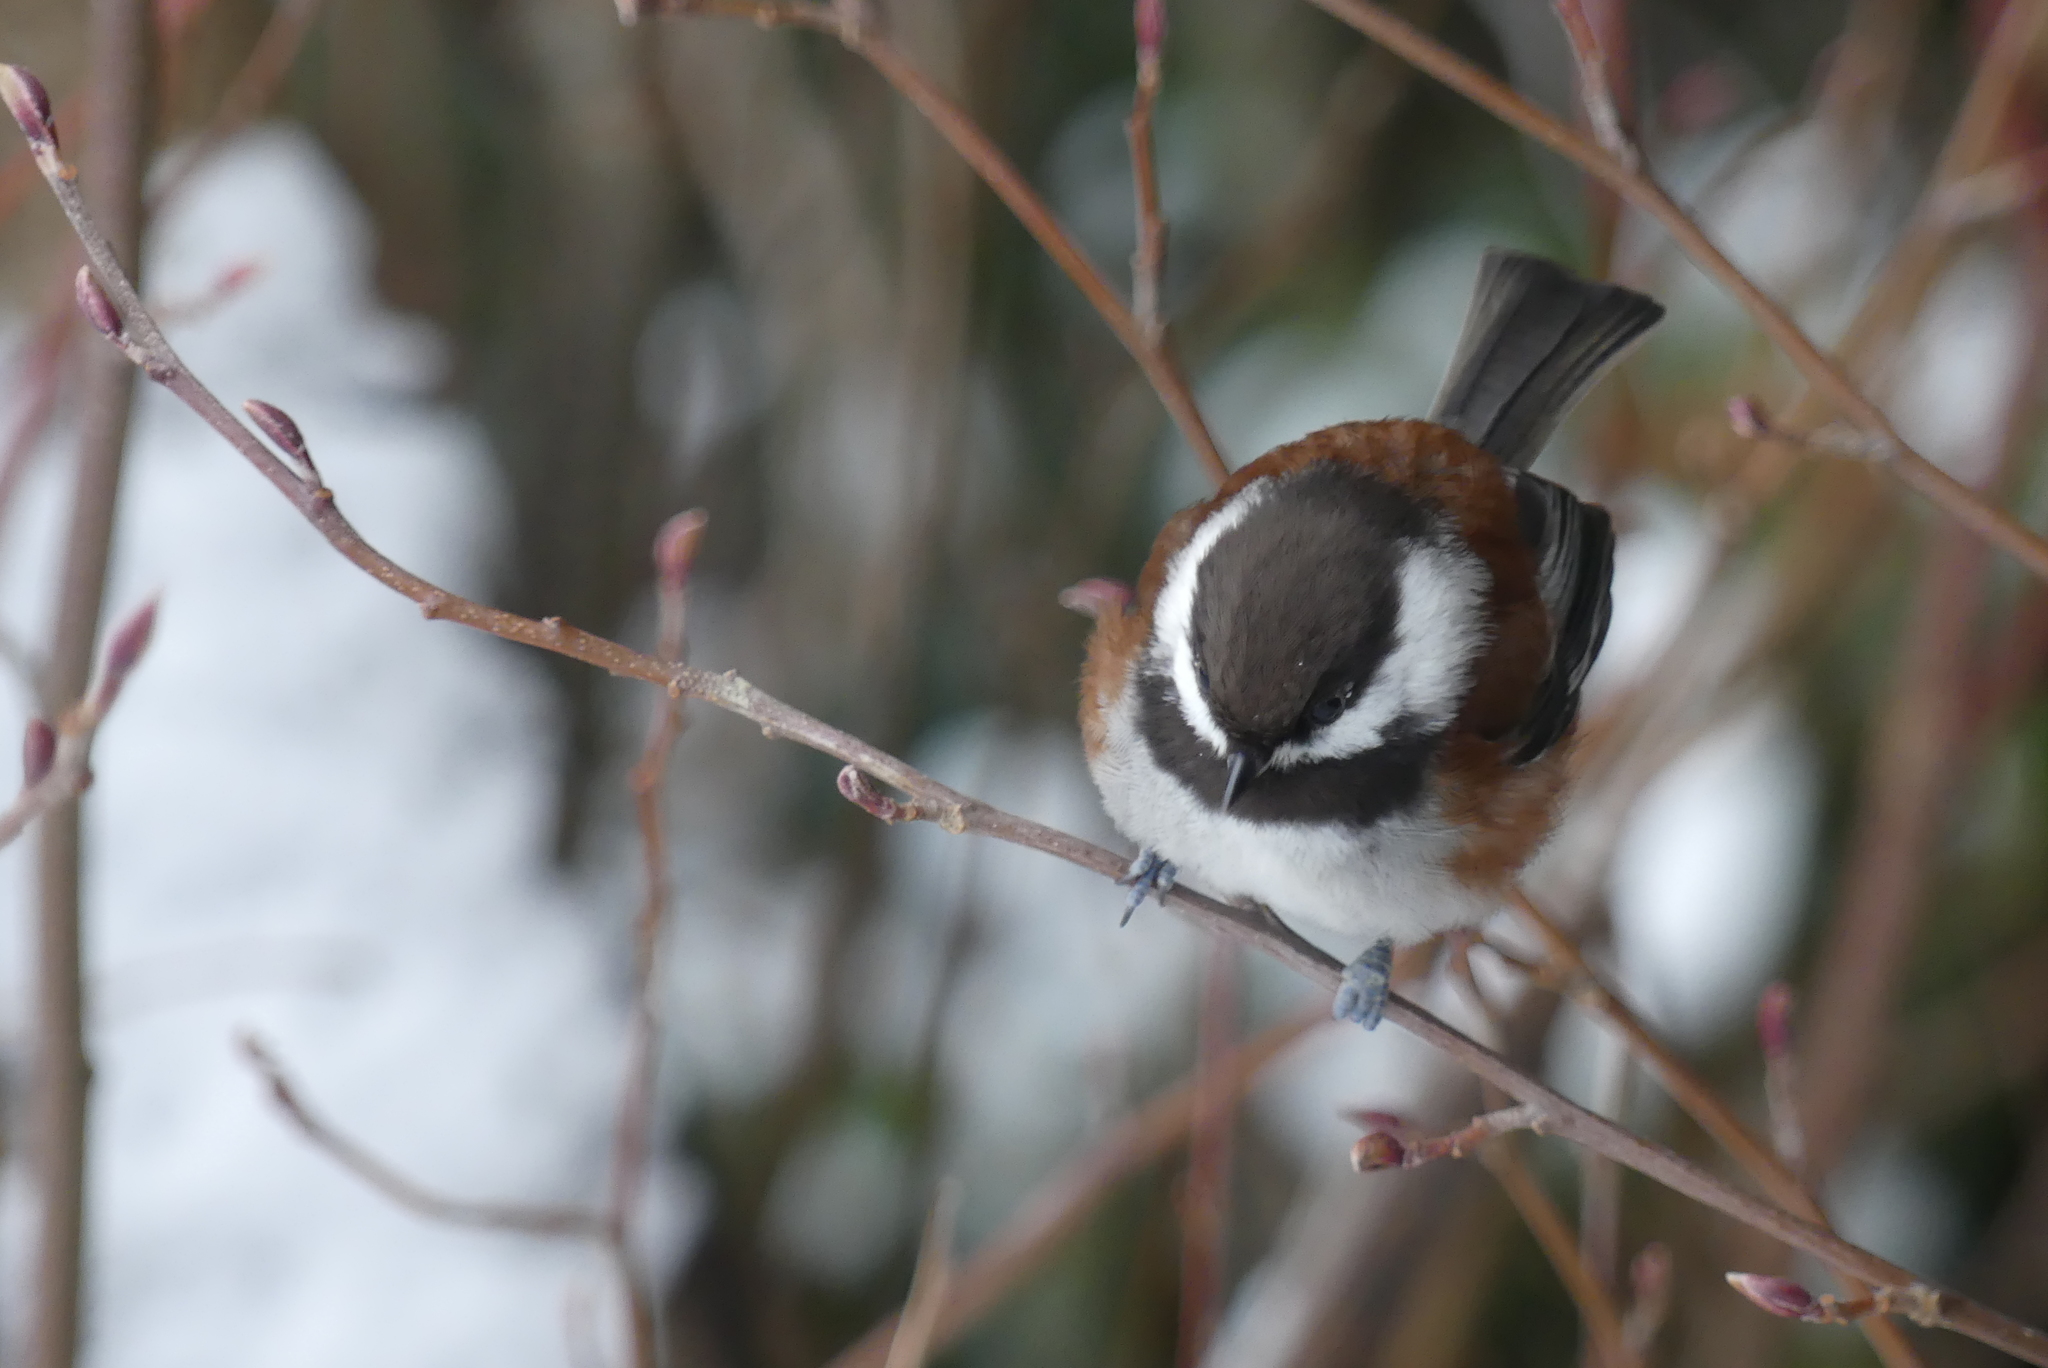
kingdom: Animalia
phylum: Chordata
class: Aves
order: Passeriformes
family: Paridae
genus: Poecile
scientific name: Poecile rufescens
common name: Chestnut-backed chickadee
